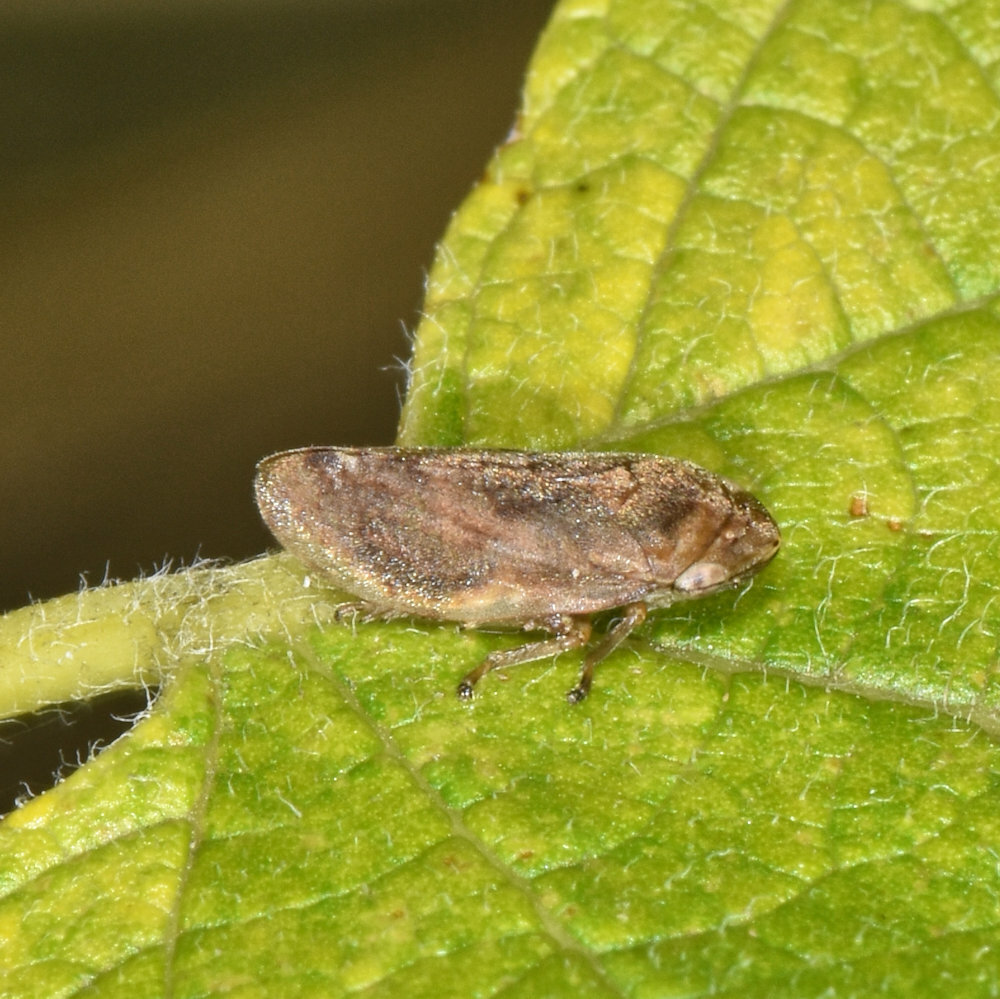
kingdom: Animalia
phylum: Arthropoda
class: Insecta
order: Hemiptera
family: Aphrophoridae
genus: Philaenus
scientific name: Philaenus spumarius
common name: Meadow spittlebug
